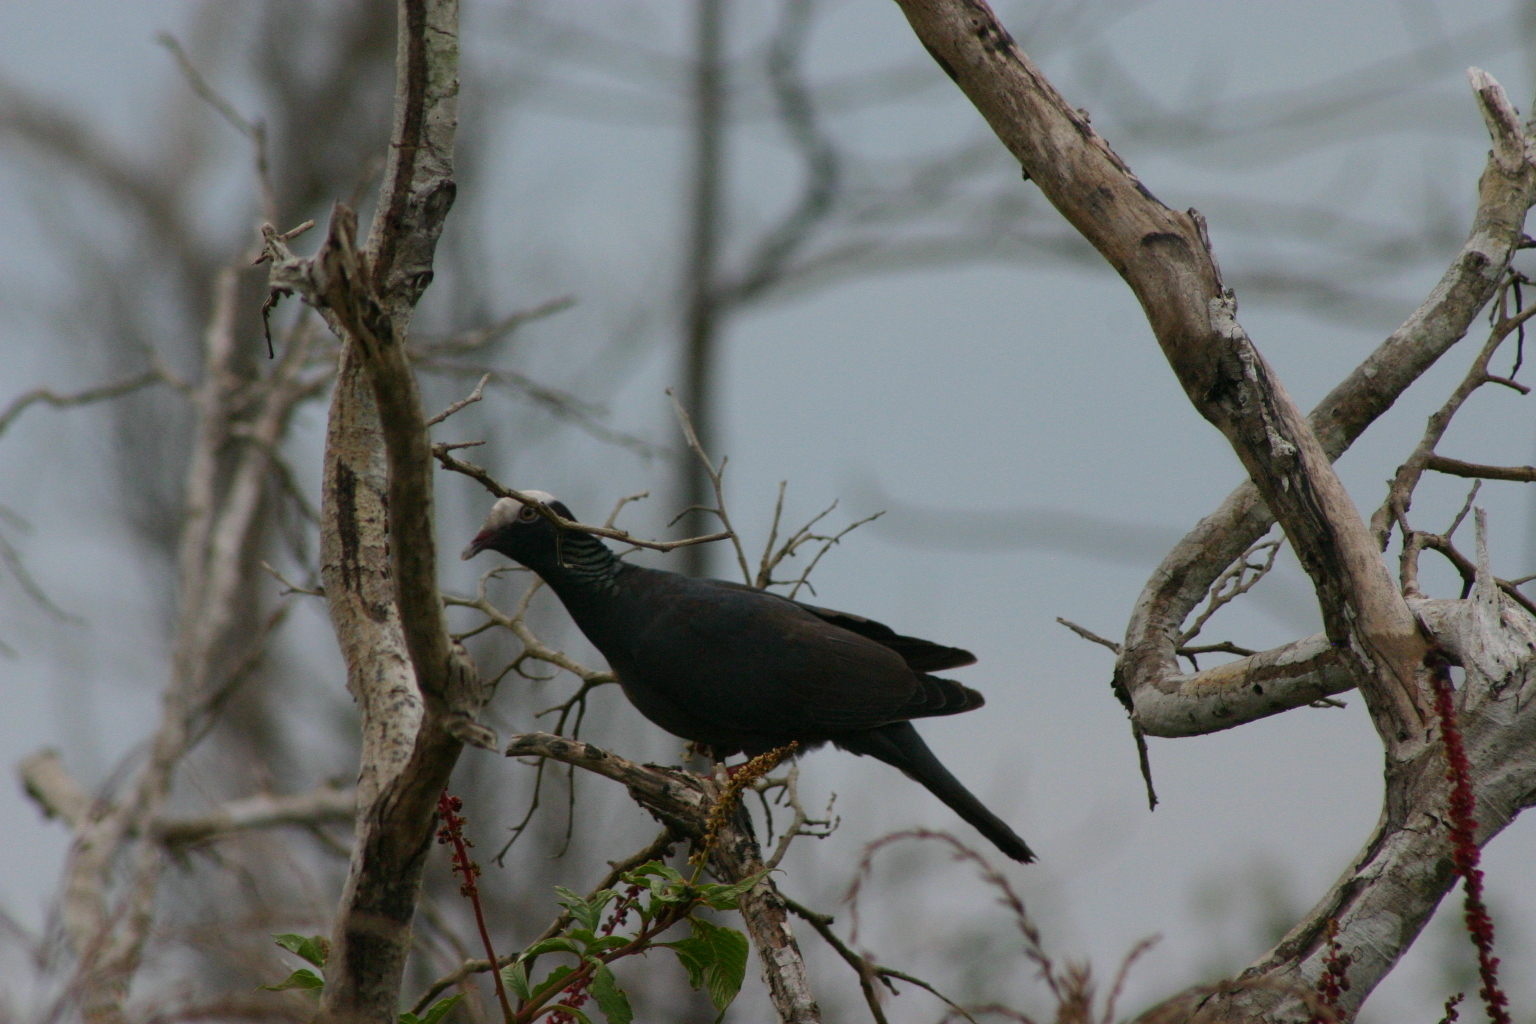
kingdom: Animalia
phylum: Chordata
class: Aves
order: Columbiformes
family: Columbidae
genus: Patagioenas
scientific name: Patagioenas leucocephala
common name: White-crowned pigeon
